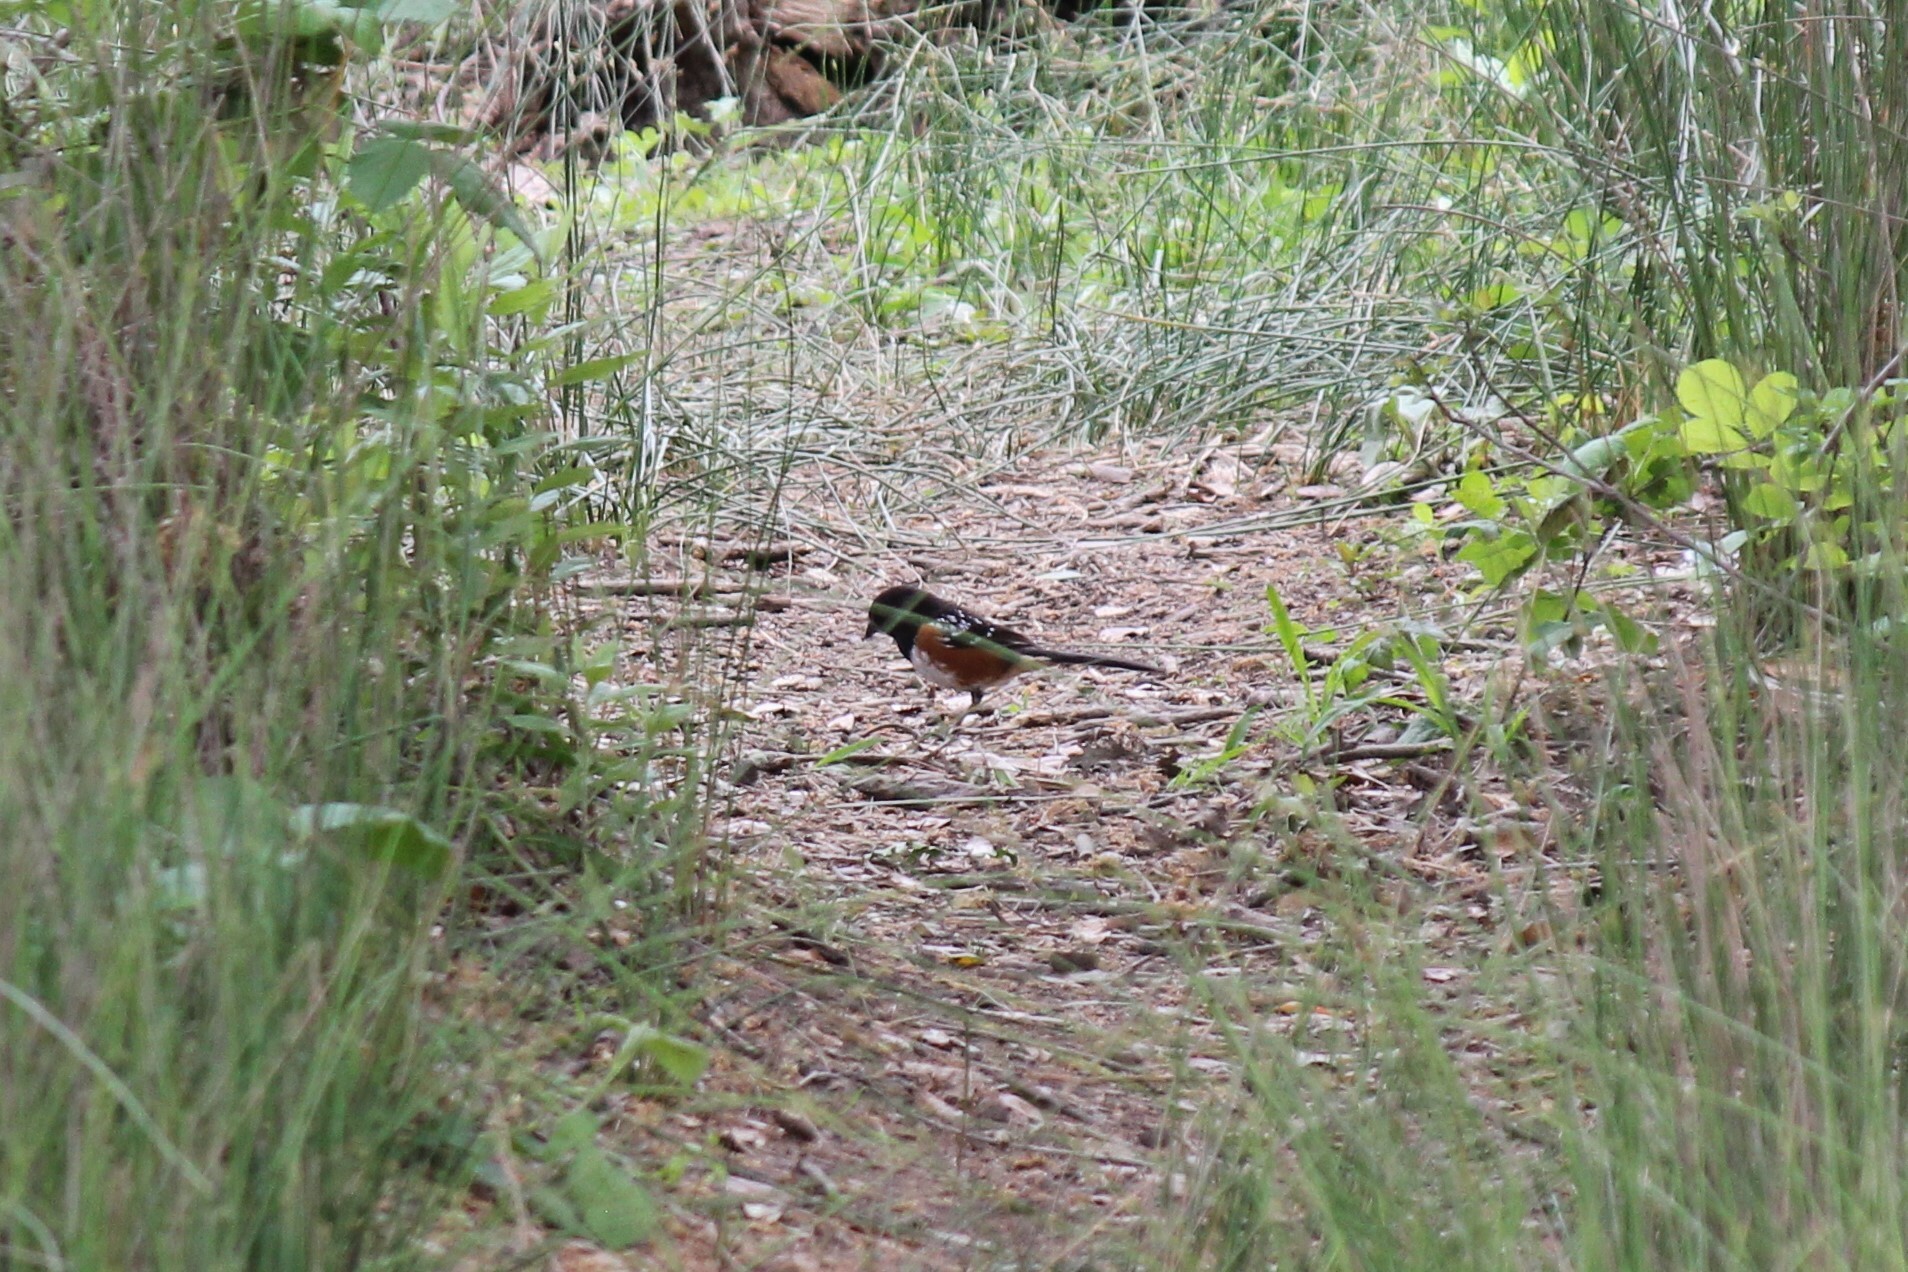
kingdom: Animalia
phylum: Chordata
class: Aves
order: Passeriformes
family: Passerellidae
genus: Pipilo
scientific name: Pipilo maculatus
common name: Spotted towhee
